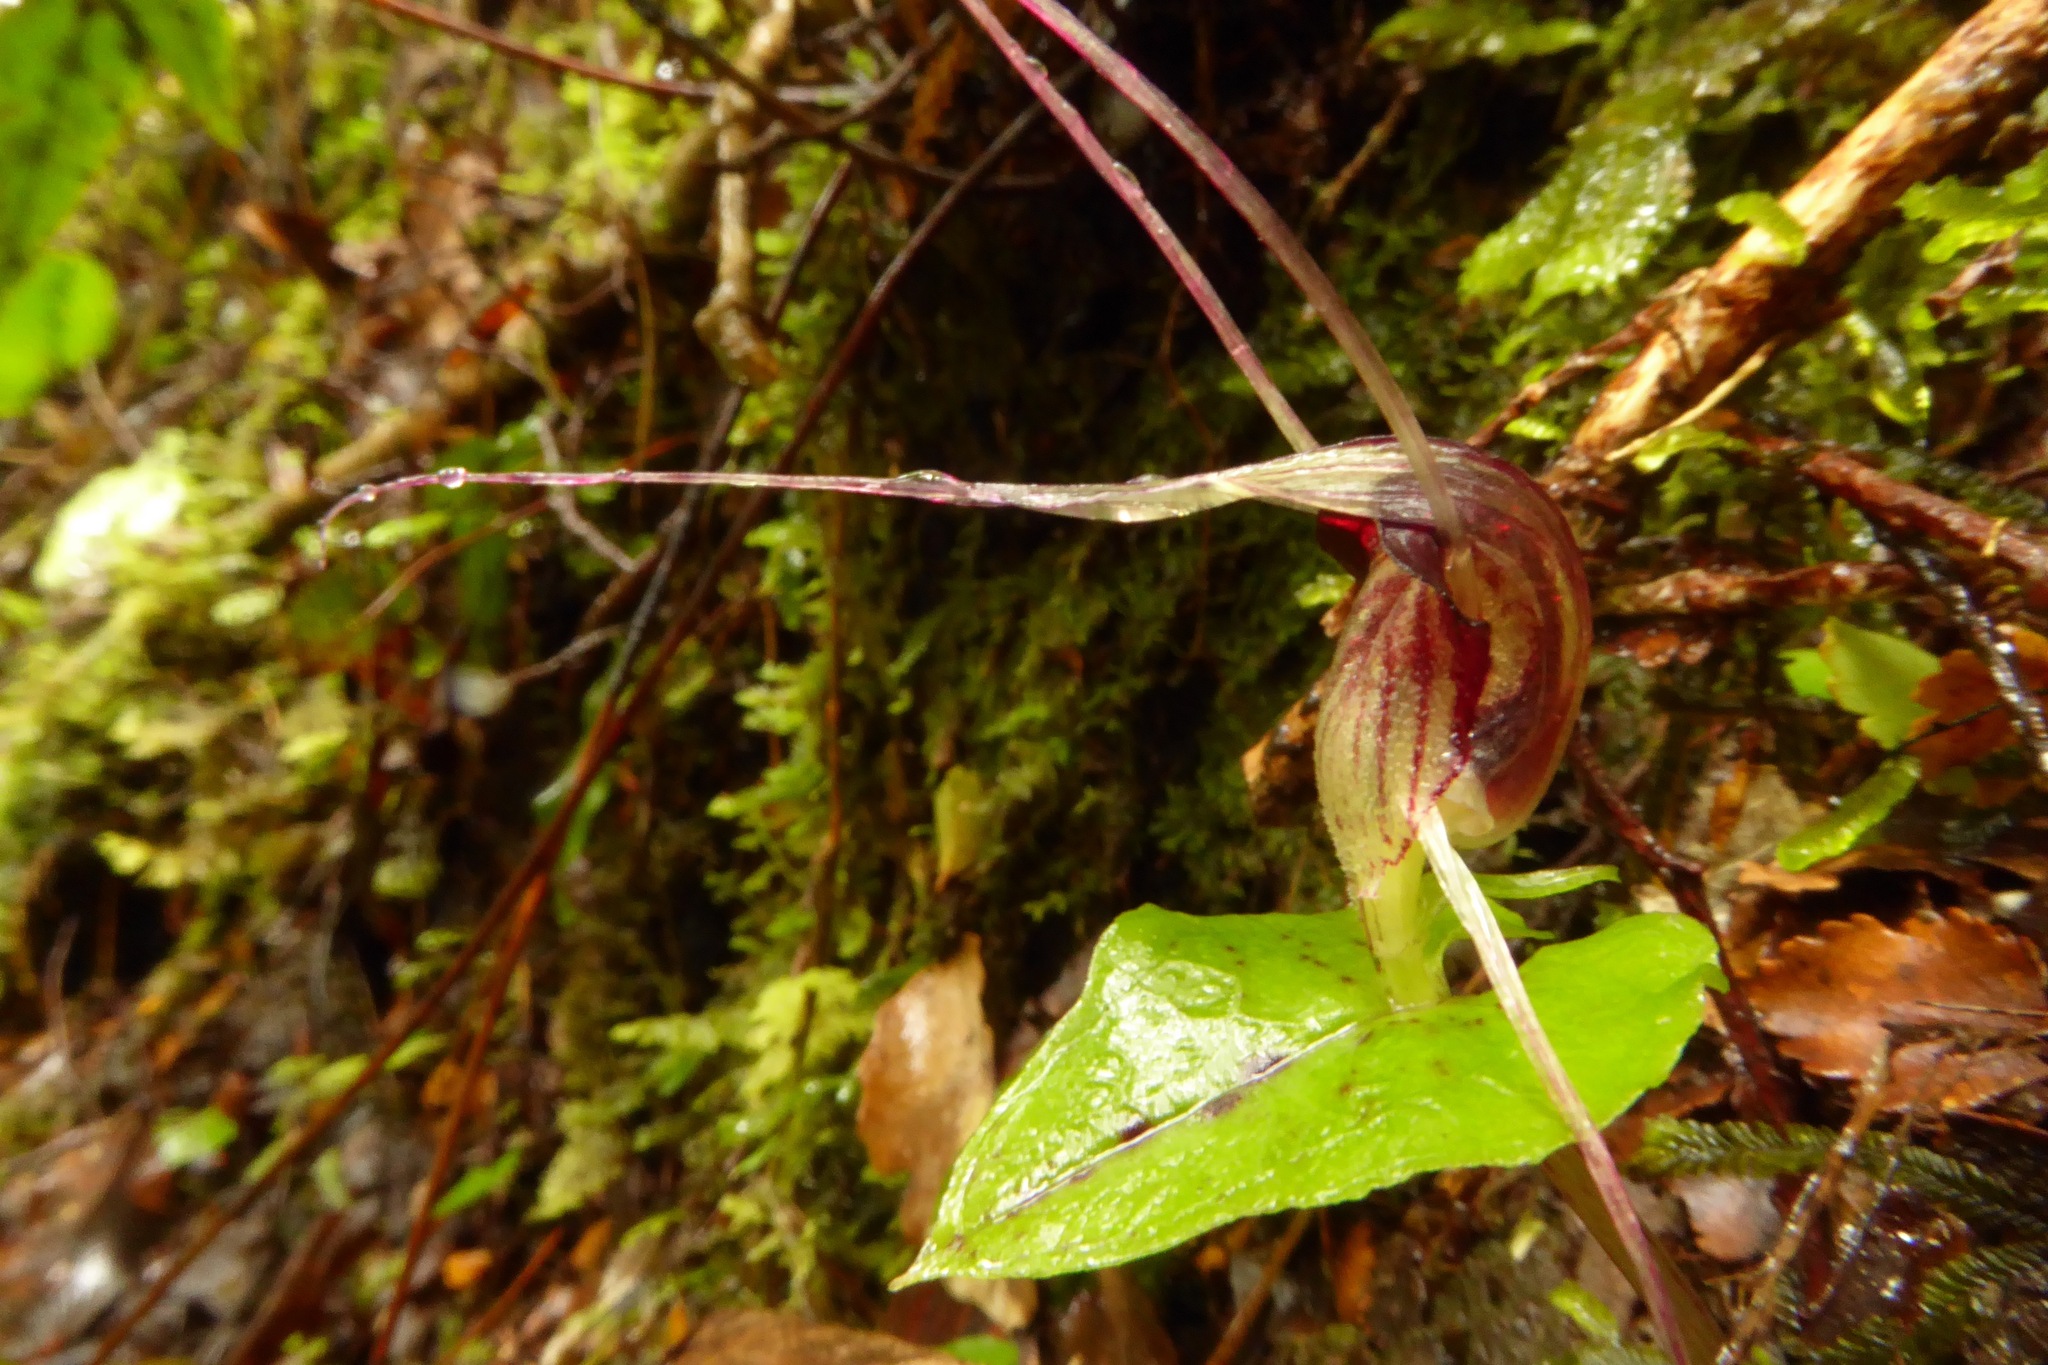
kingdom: Plantae
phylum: Tracheophyta
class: Liliopsida
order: Asparagales
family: Orchidaceae
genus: Corybas
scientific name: Corybas acuminatus
